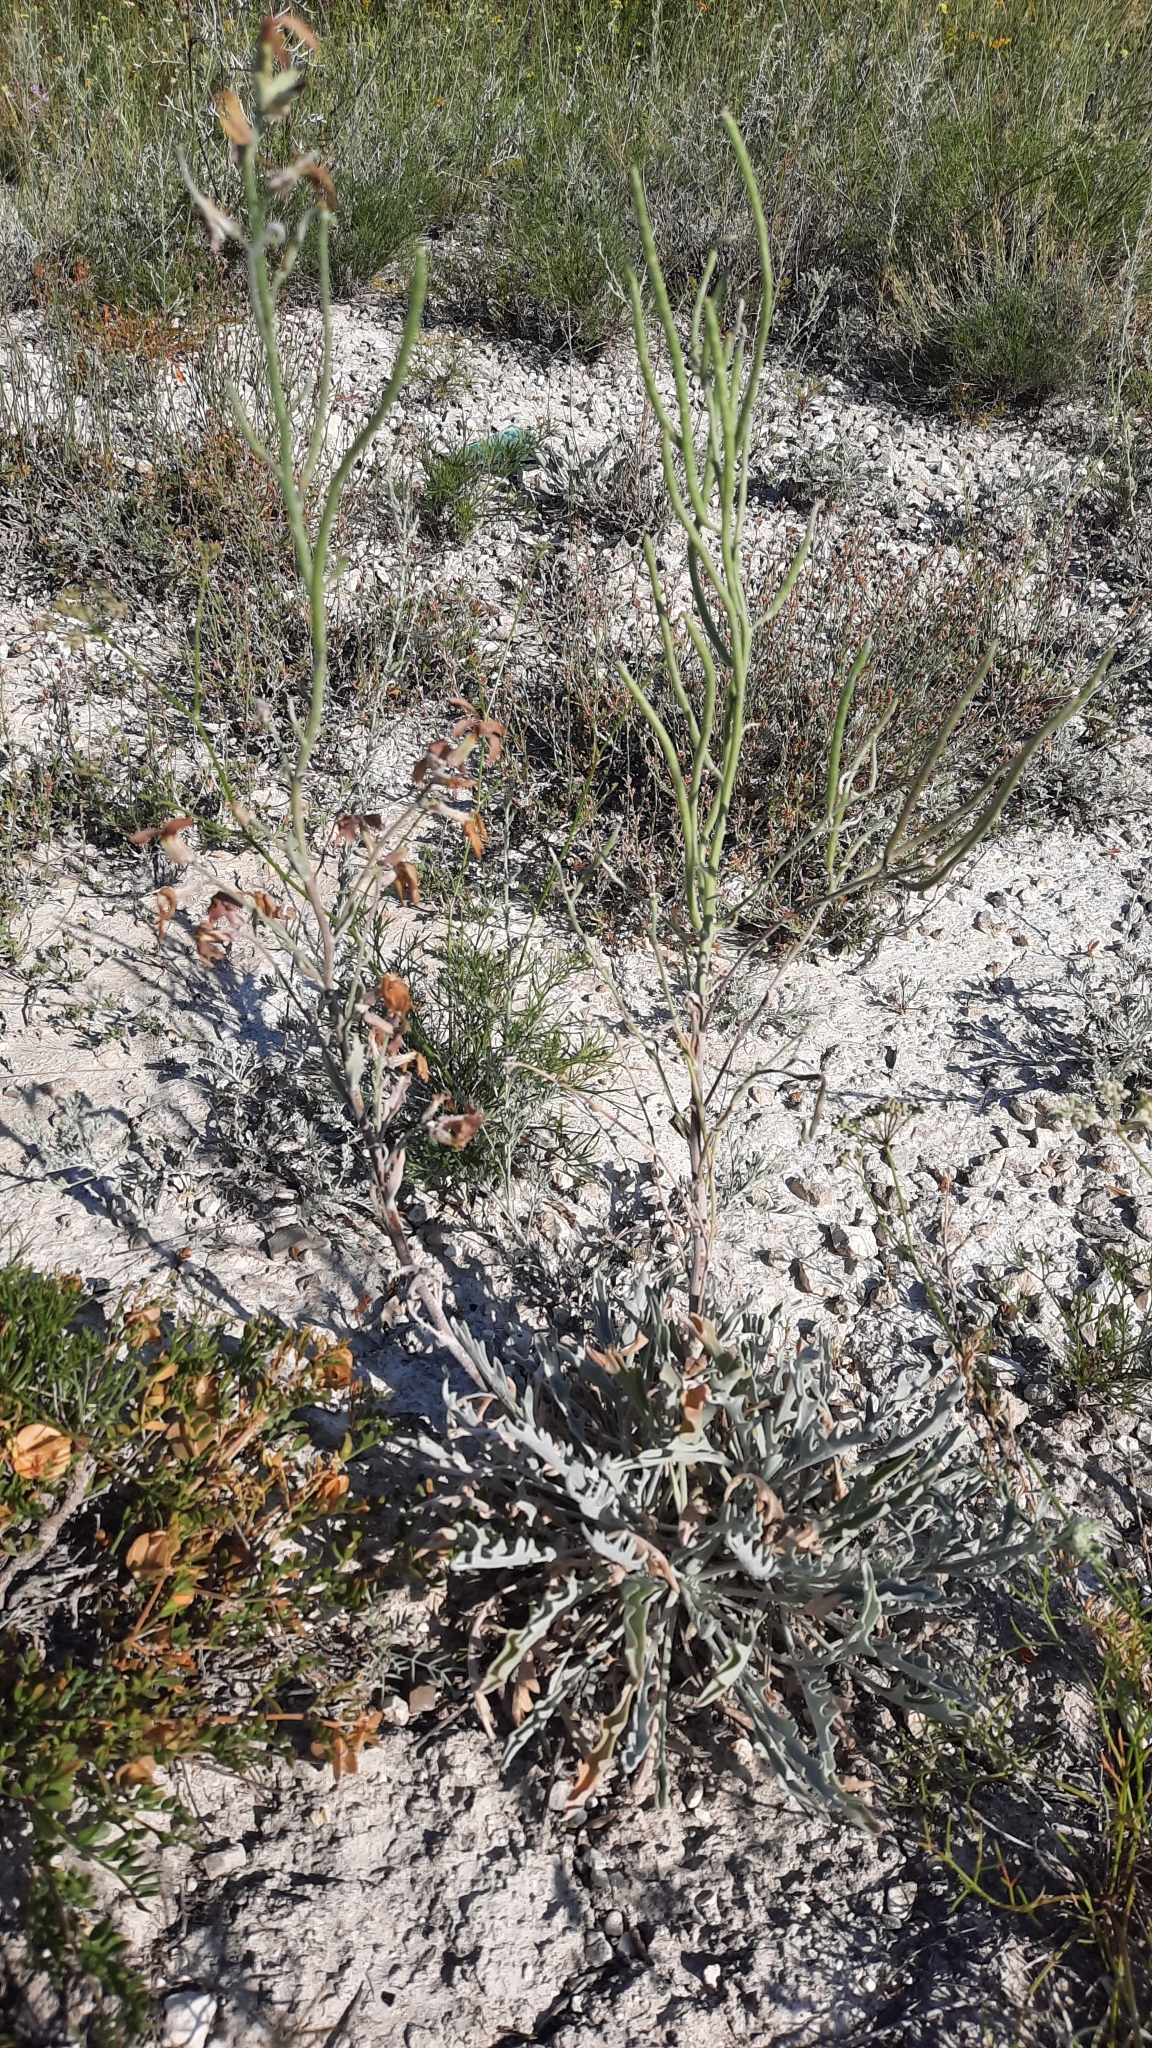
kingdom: Plantae
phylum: Tracheophyta
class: Magnoliopsida
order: Brassicales
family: Brassicaceae
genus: Matthiola
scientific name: Matthiola fragrans
